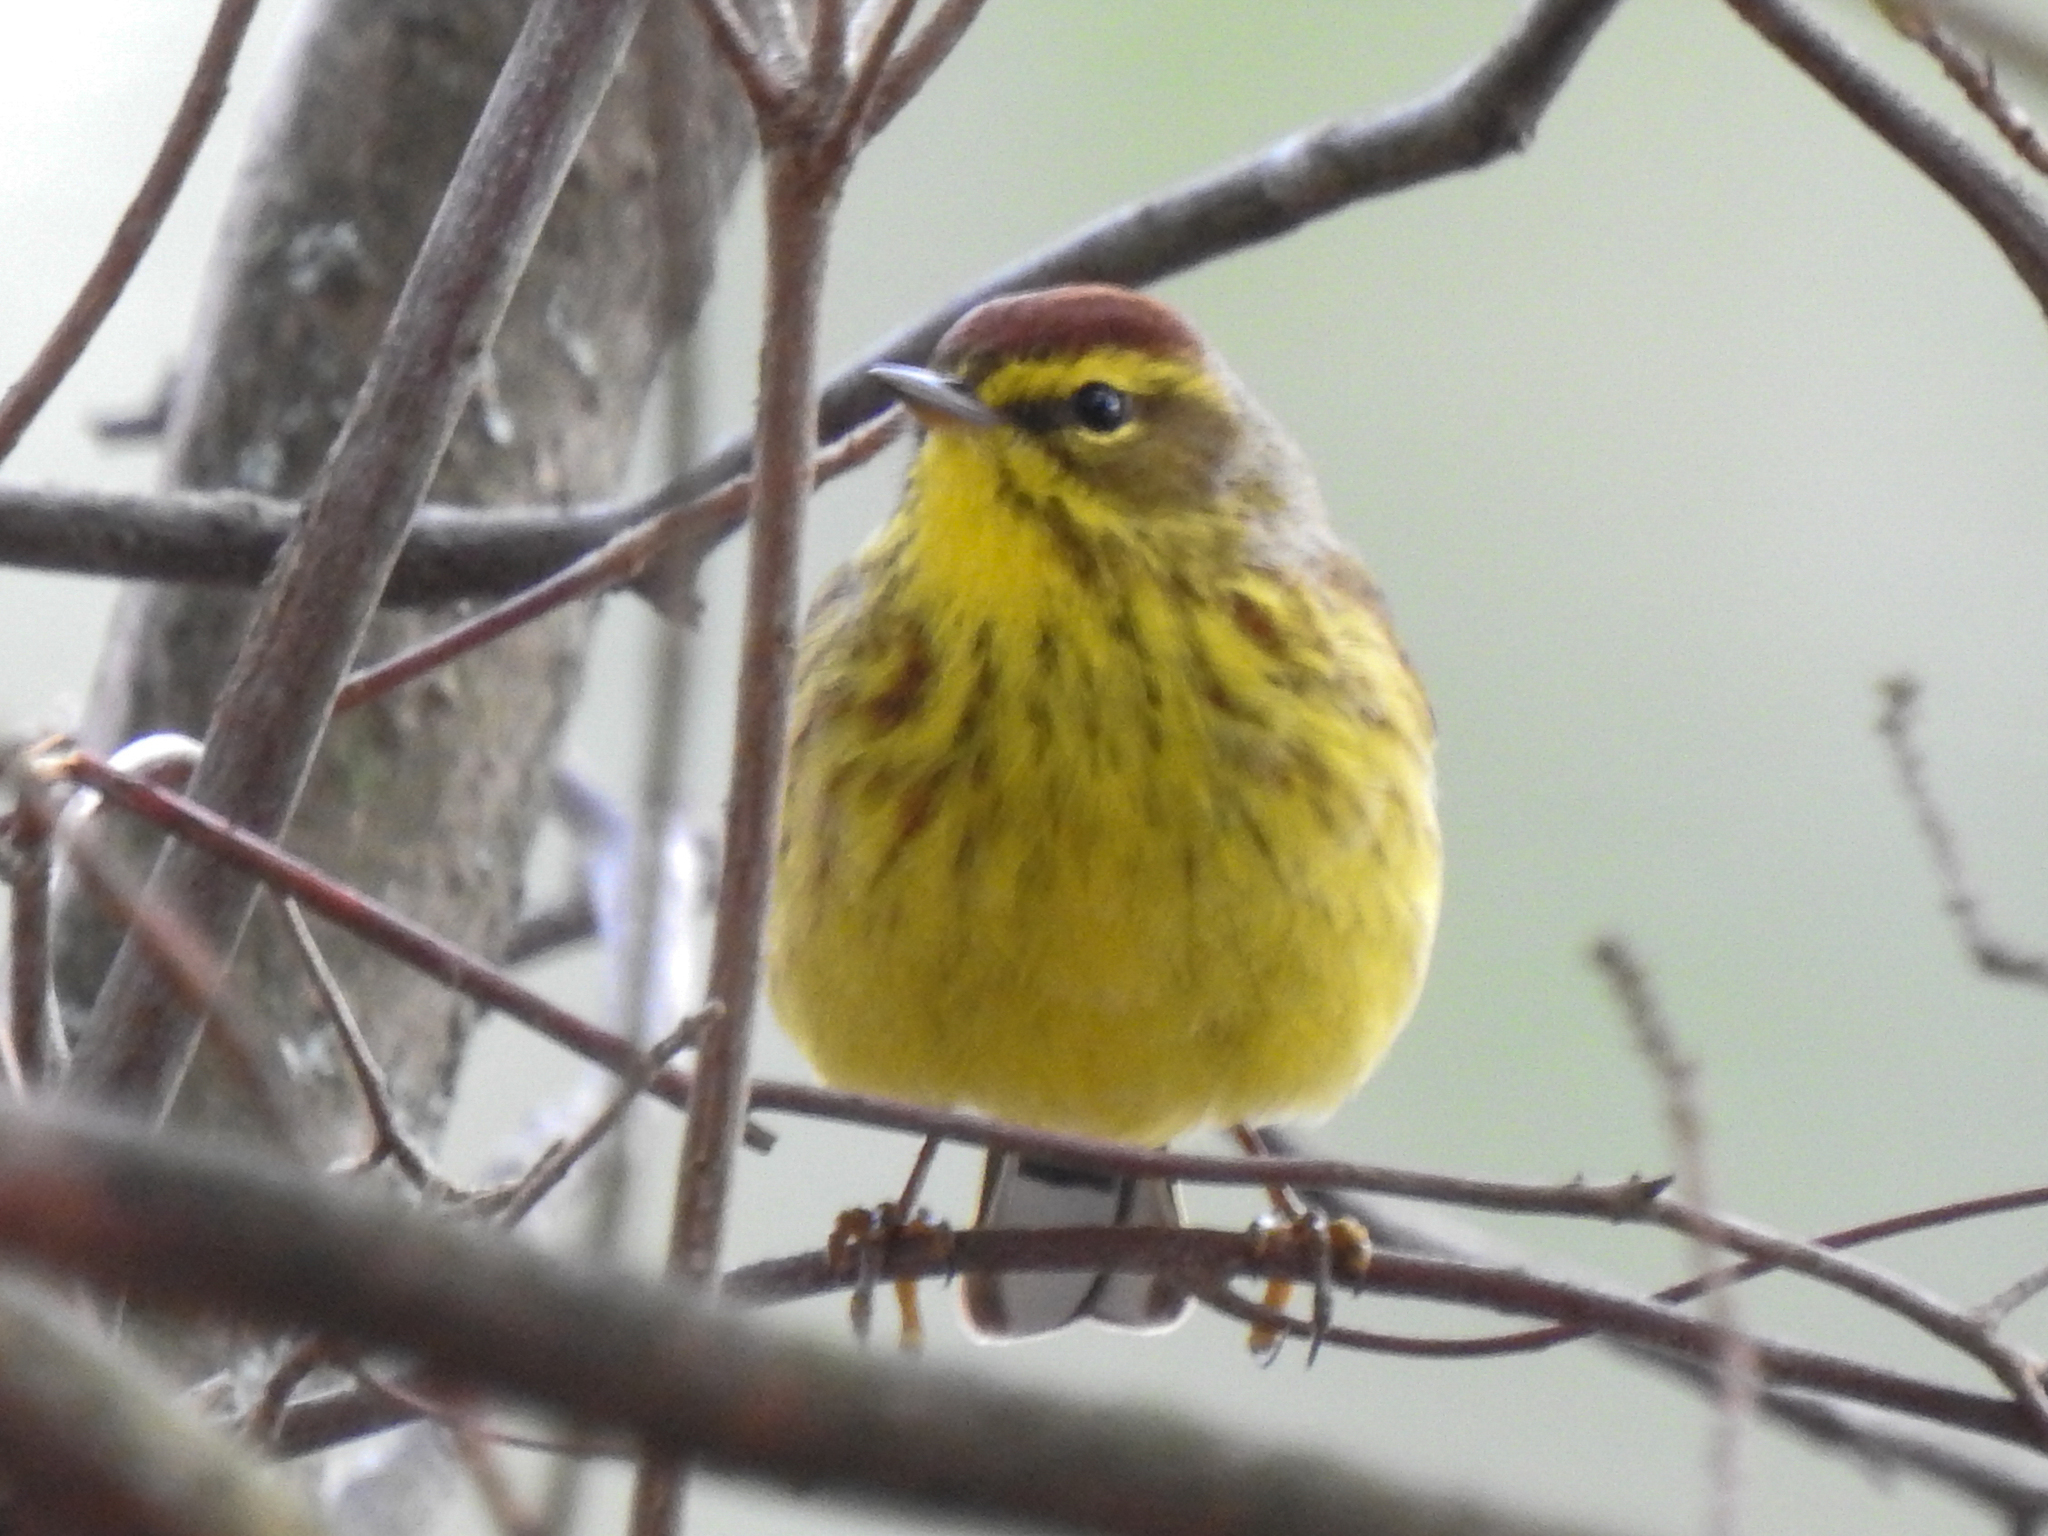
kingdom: Animalia
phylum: Chordata
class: Aves
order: Passeriformes
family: Parulidae
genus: Setophaga
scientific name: Setophaga palmarum
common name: Palm warbler
